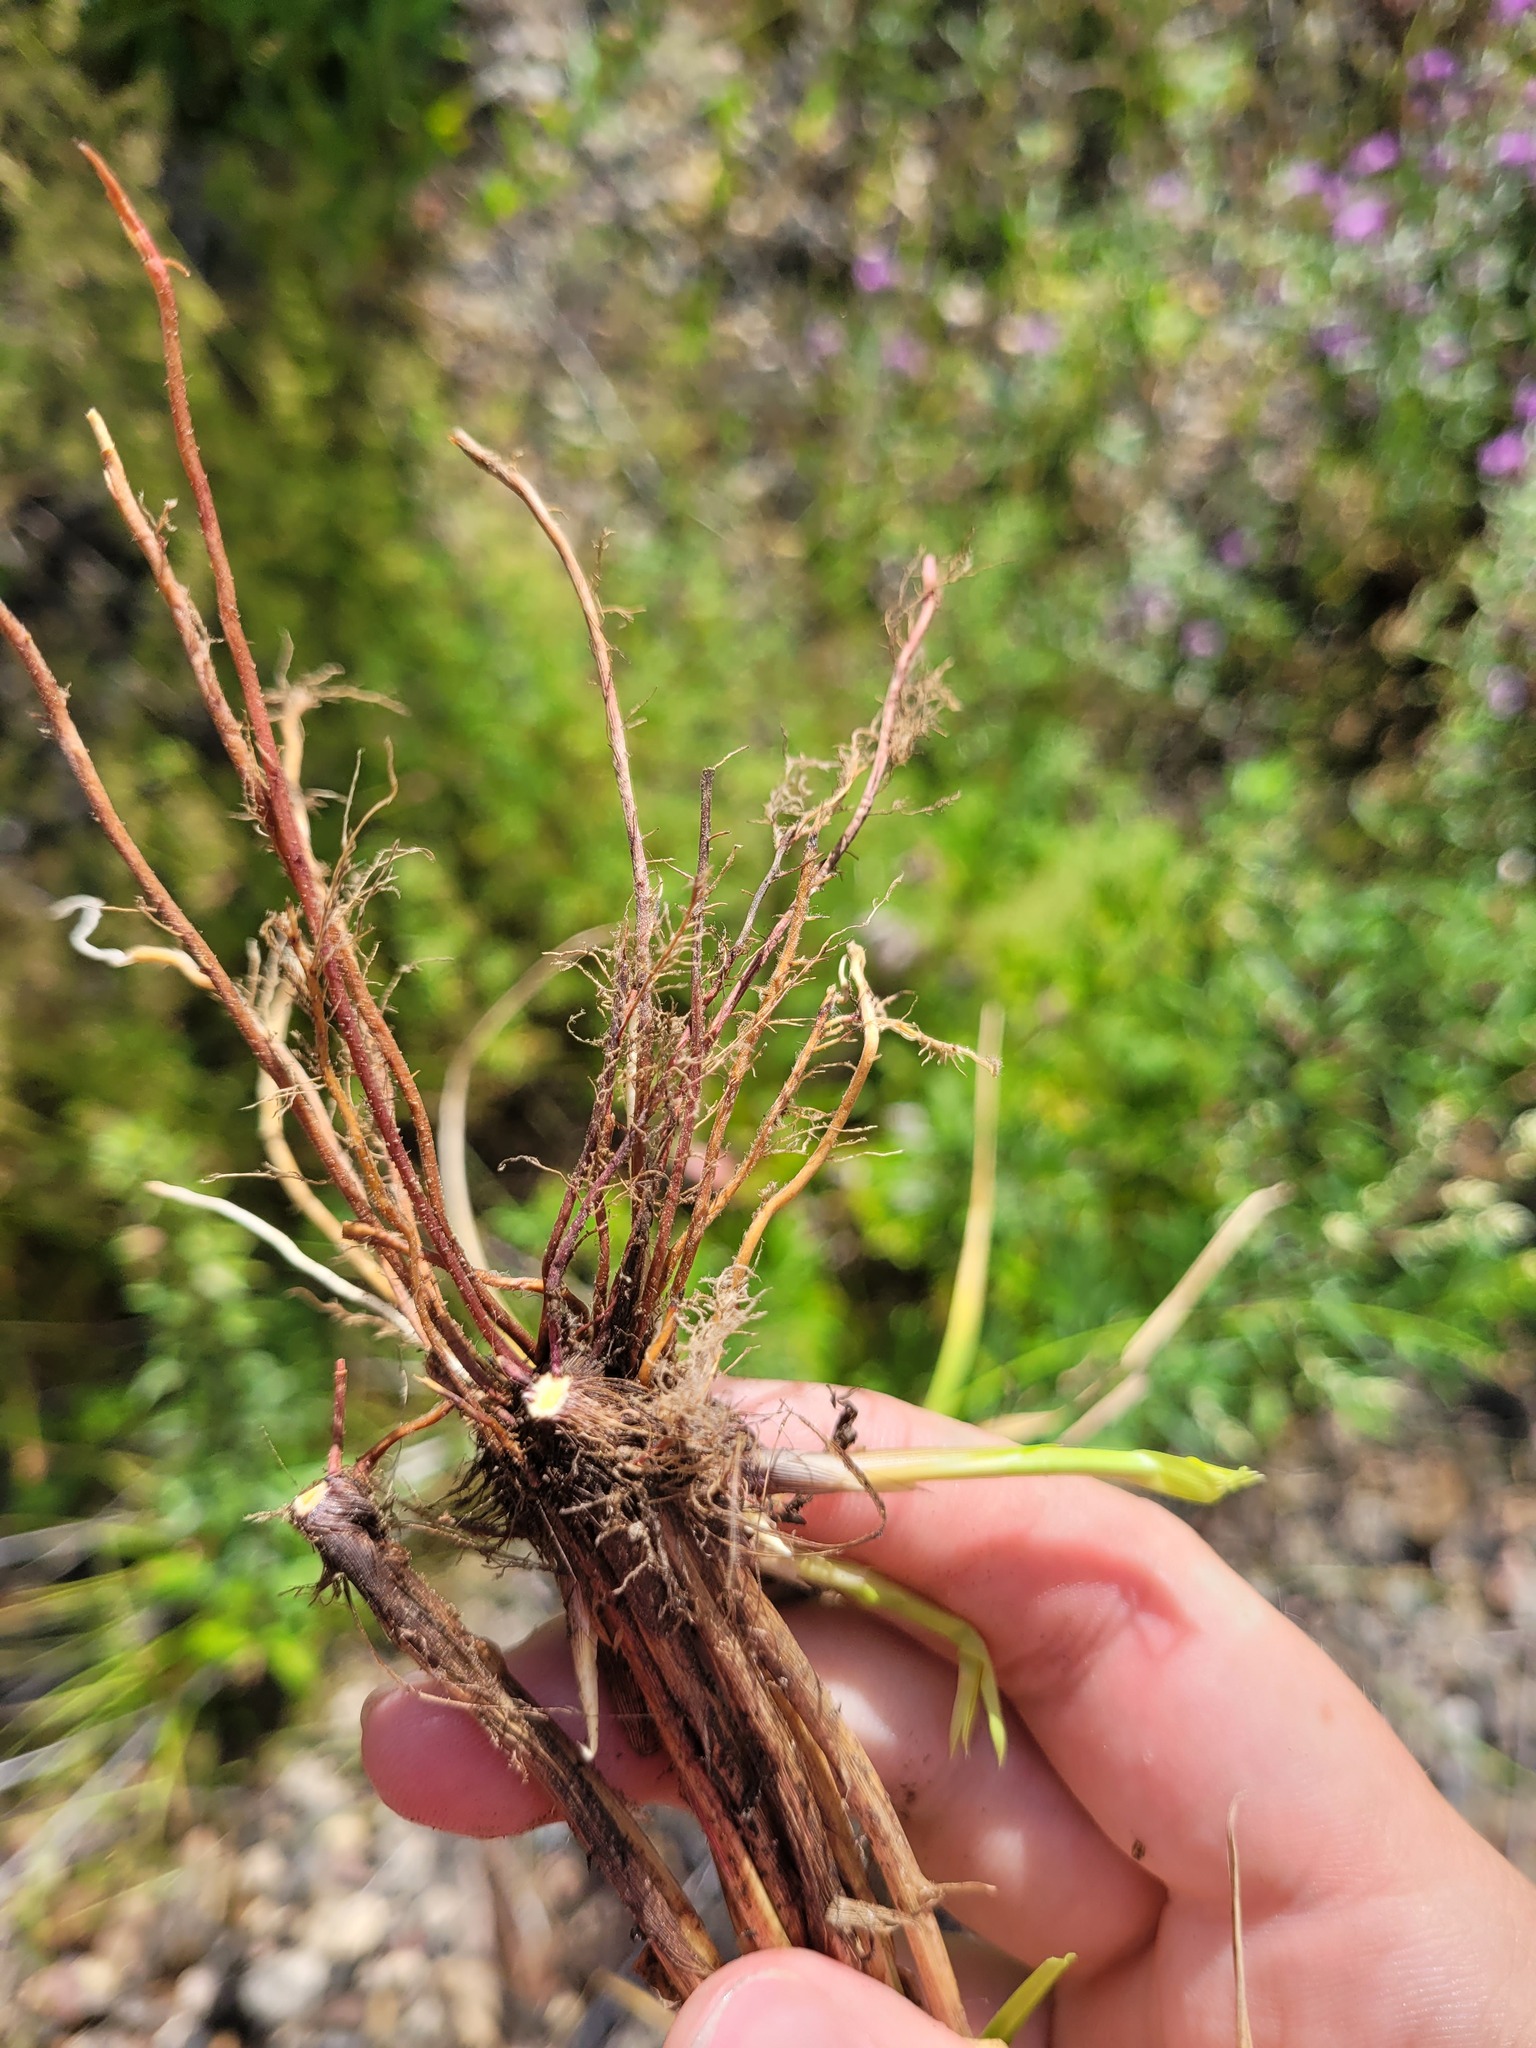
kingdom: Plantae
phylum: Tracheophyta
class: Liliopsida
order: Poales
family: Cyperaceae
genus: Carex
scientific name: Carex spicata
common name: Spiked sedge
